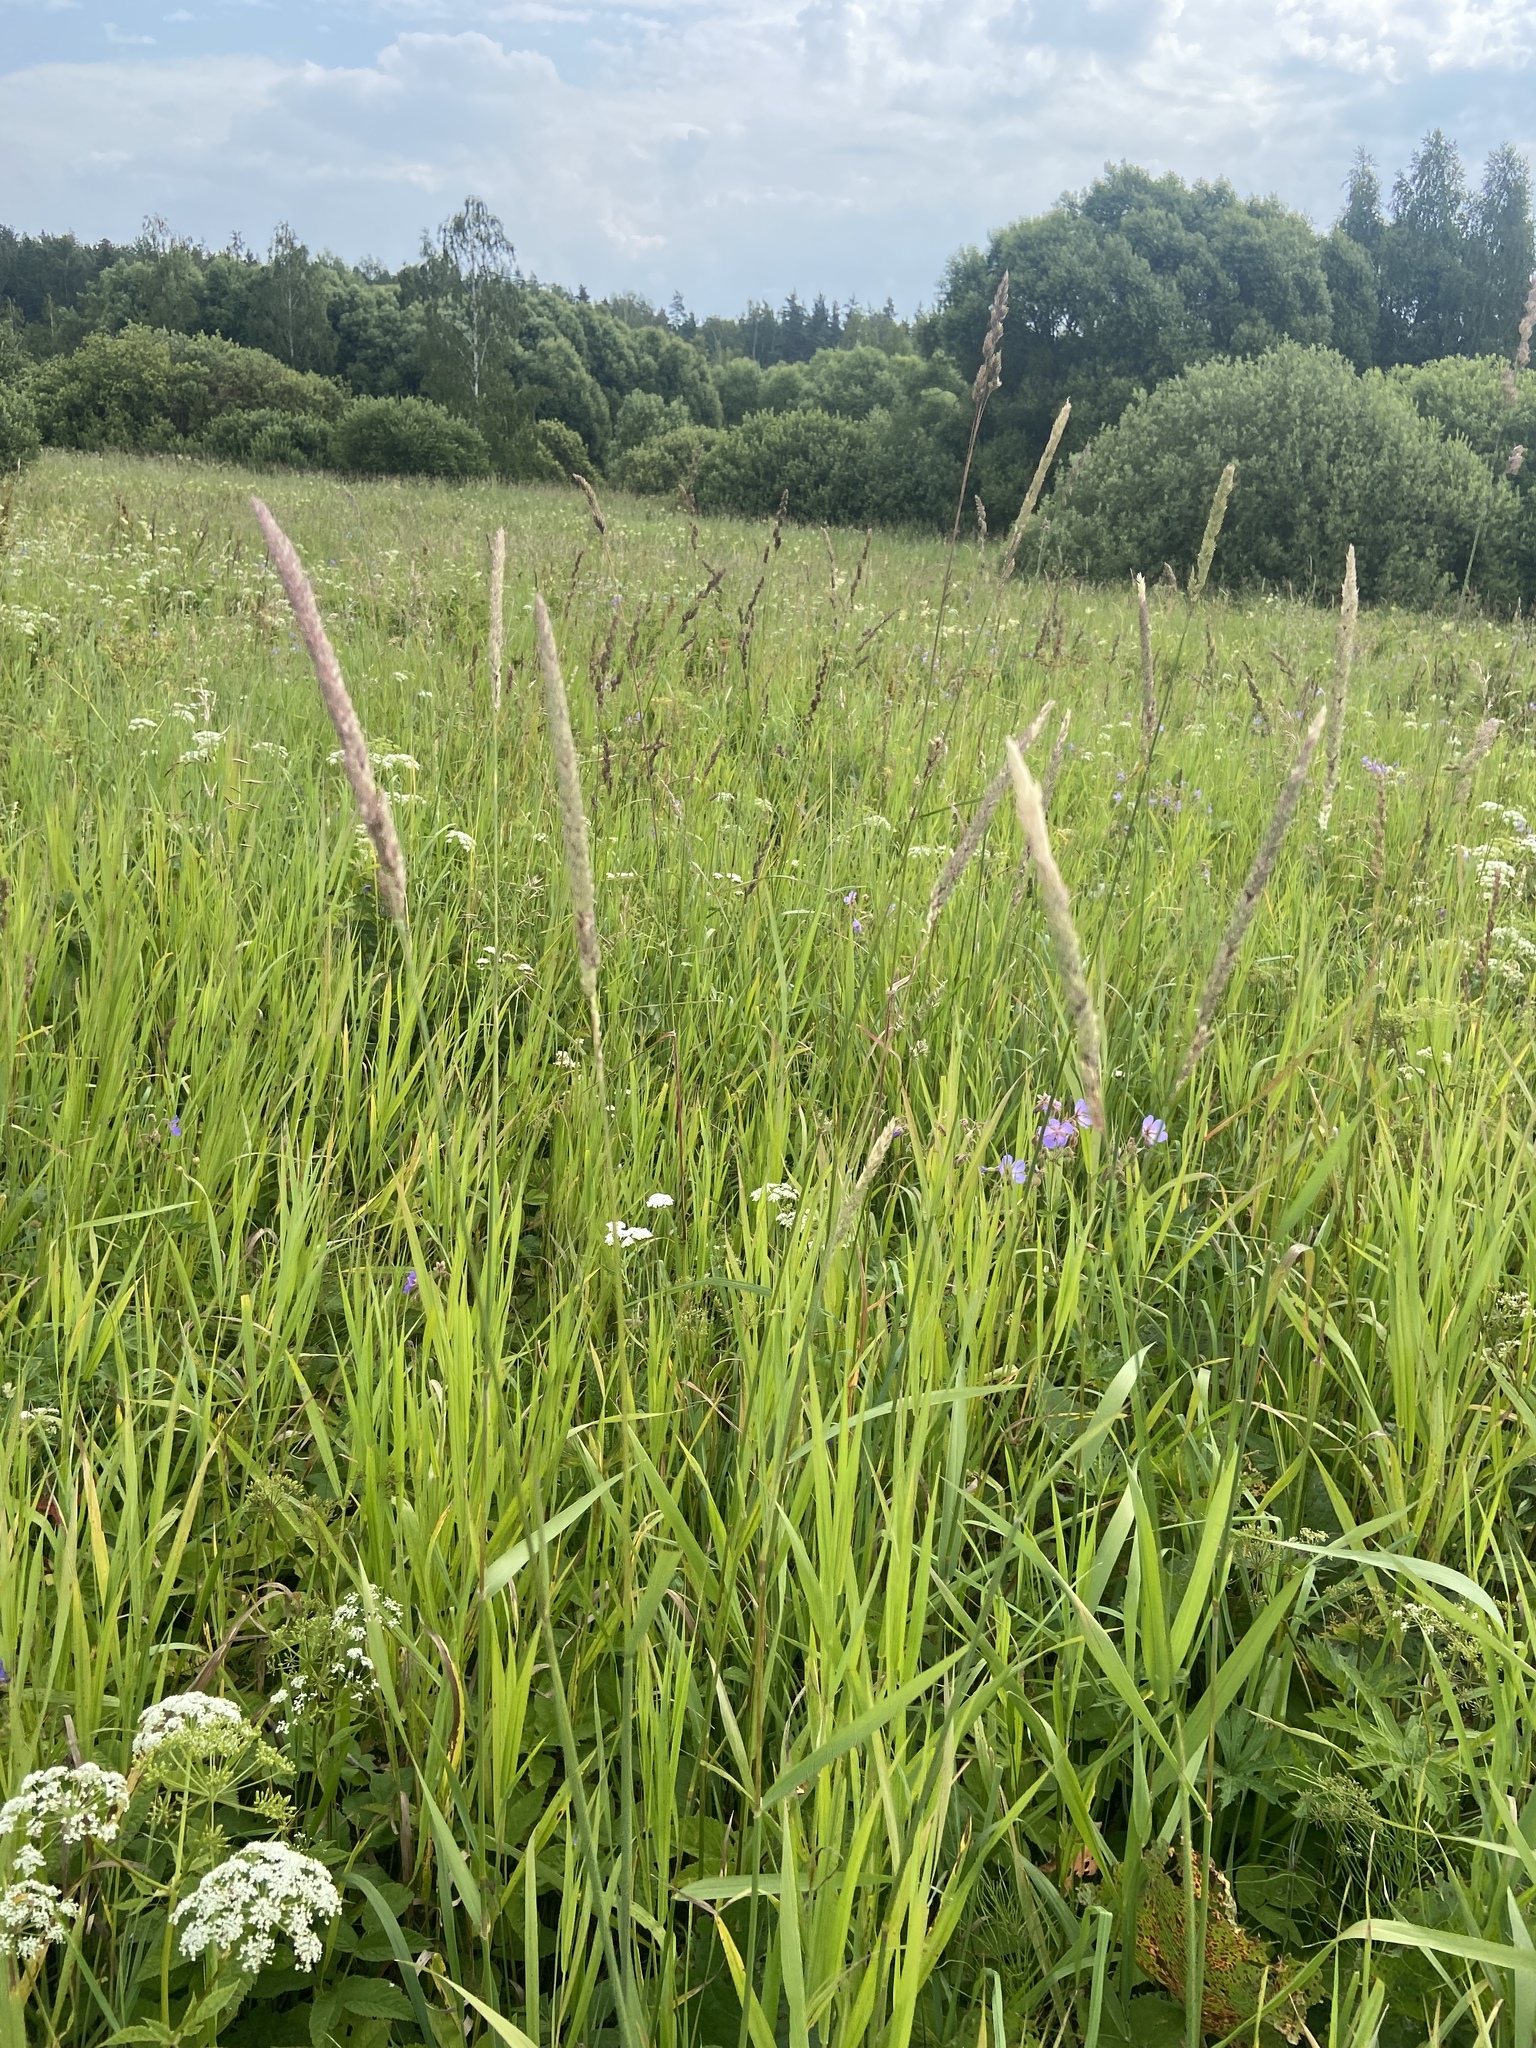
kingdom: Plantae
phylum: Tracheophyta
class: Liliopsida
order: Poales
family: Poaceae
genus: Phalaris
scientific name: Phalaris arundinacea
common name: Reed canary-grass
